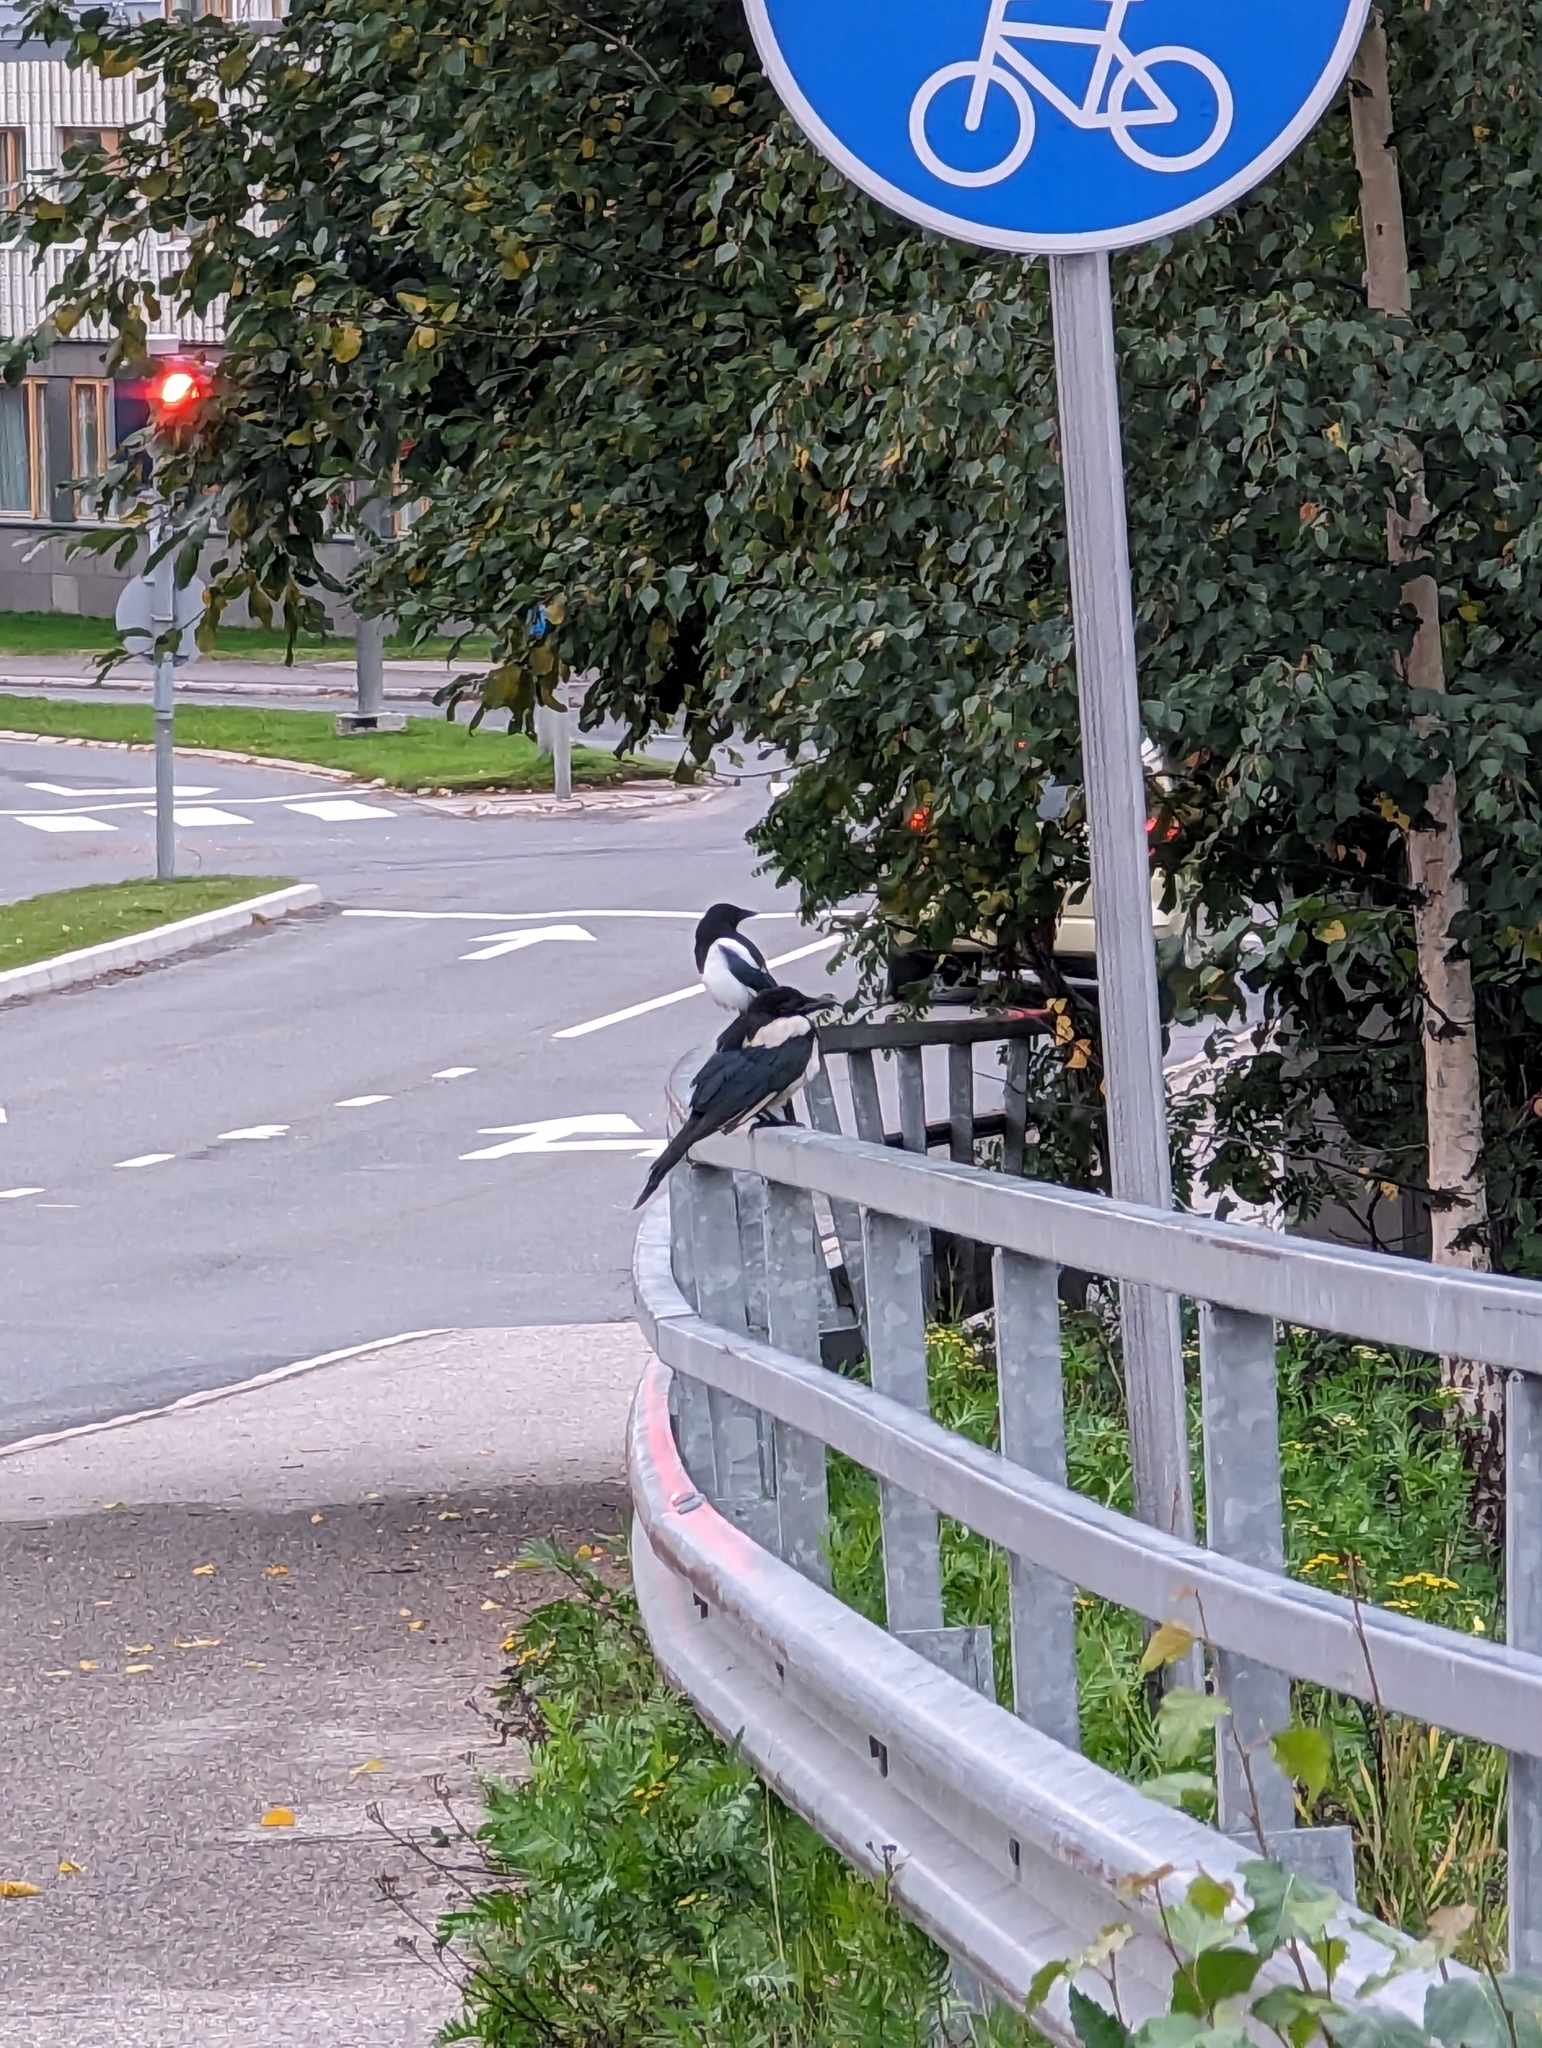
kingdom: Animalia
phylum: Chordata
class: Aves
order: Passeriformes
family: Corvidae
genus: Pica
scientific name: Pica pica
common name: Eurasian magpie
